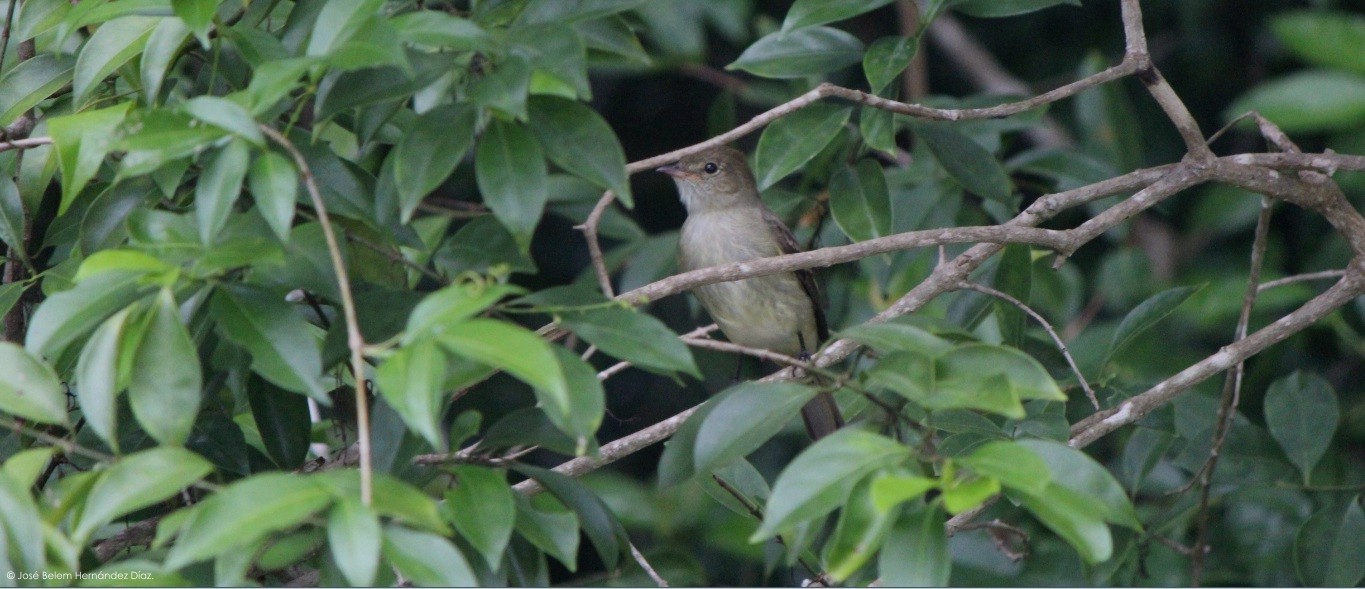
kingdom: Animalia
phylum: Chordata
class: Aves
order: Passeriformes
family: Tyrannidae
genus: Elaenia
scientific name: Elaenia martinica
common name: Caribbean elaenia
